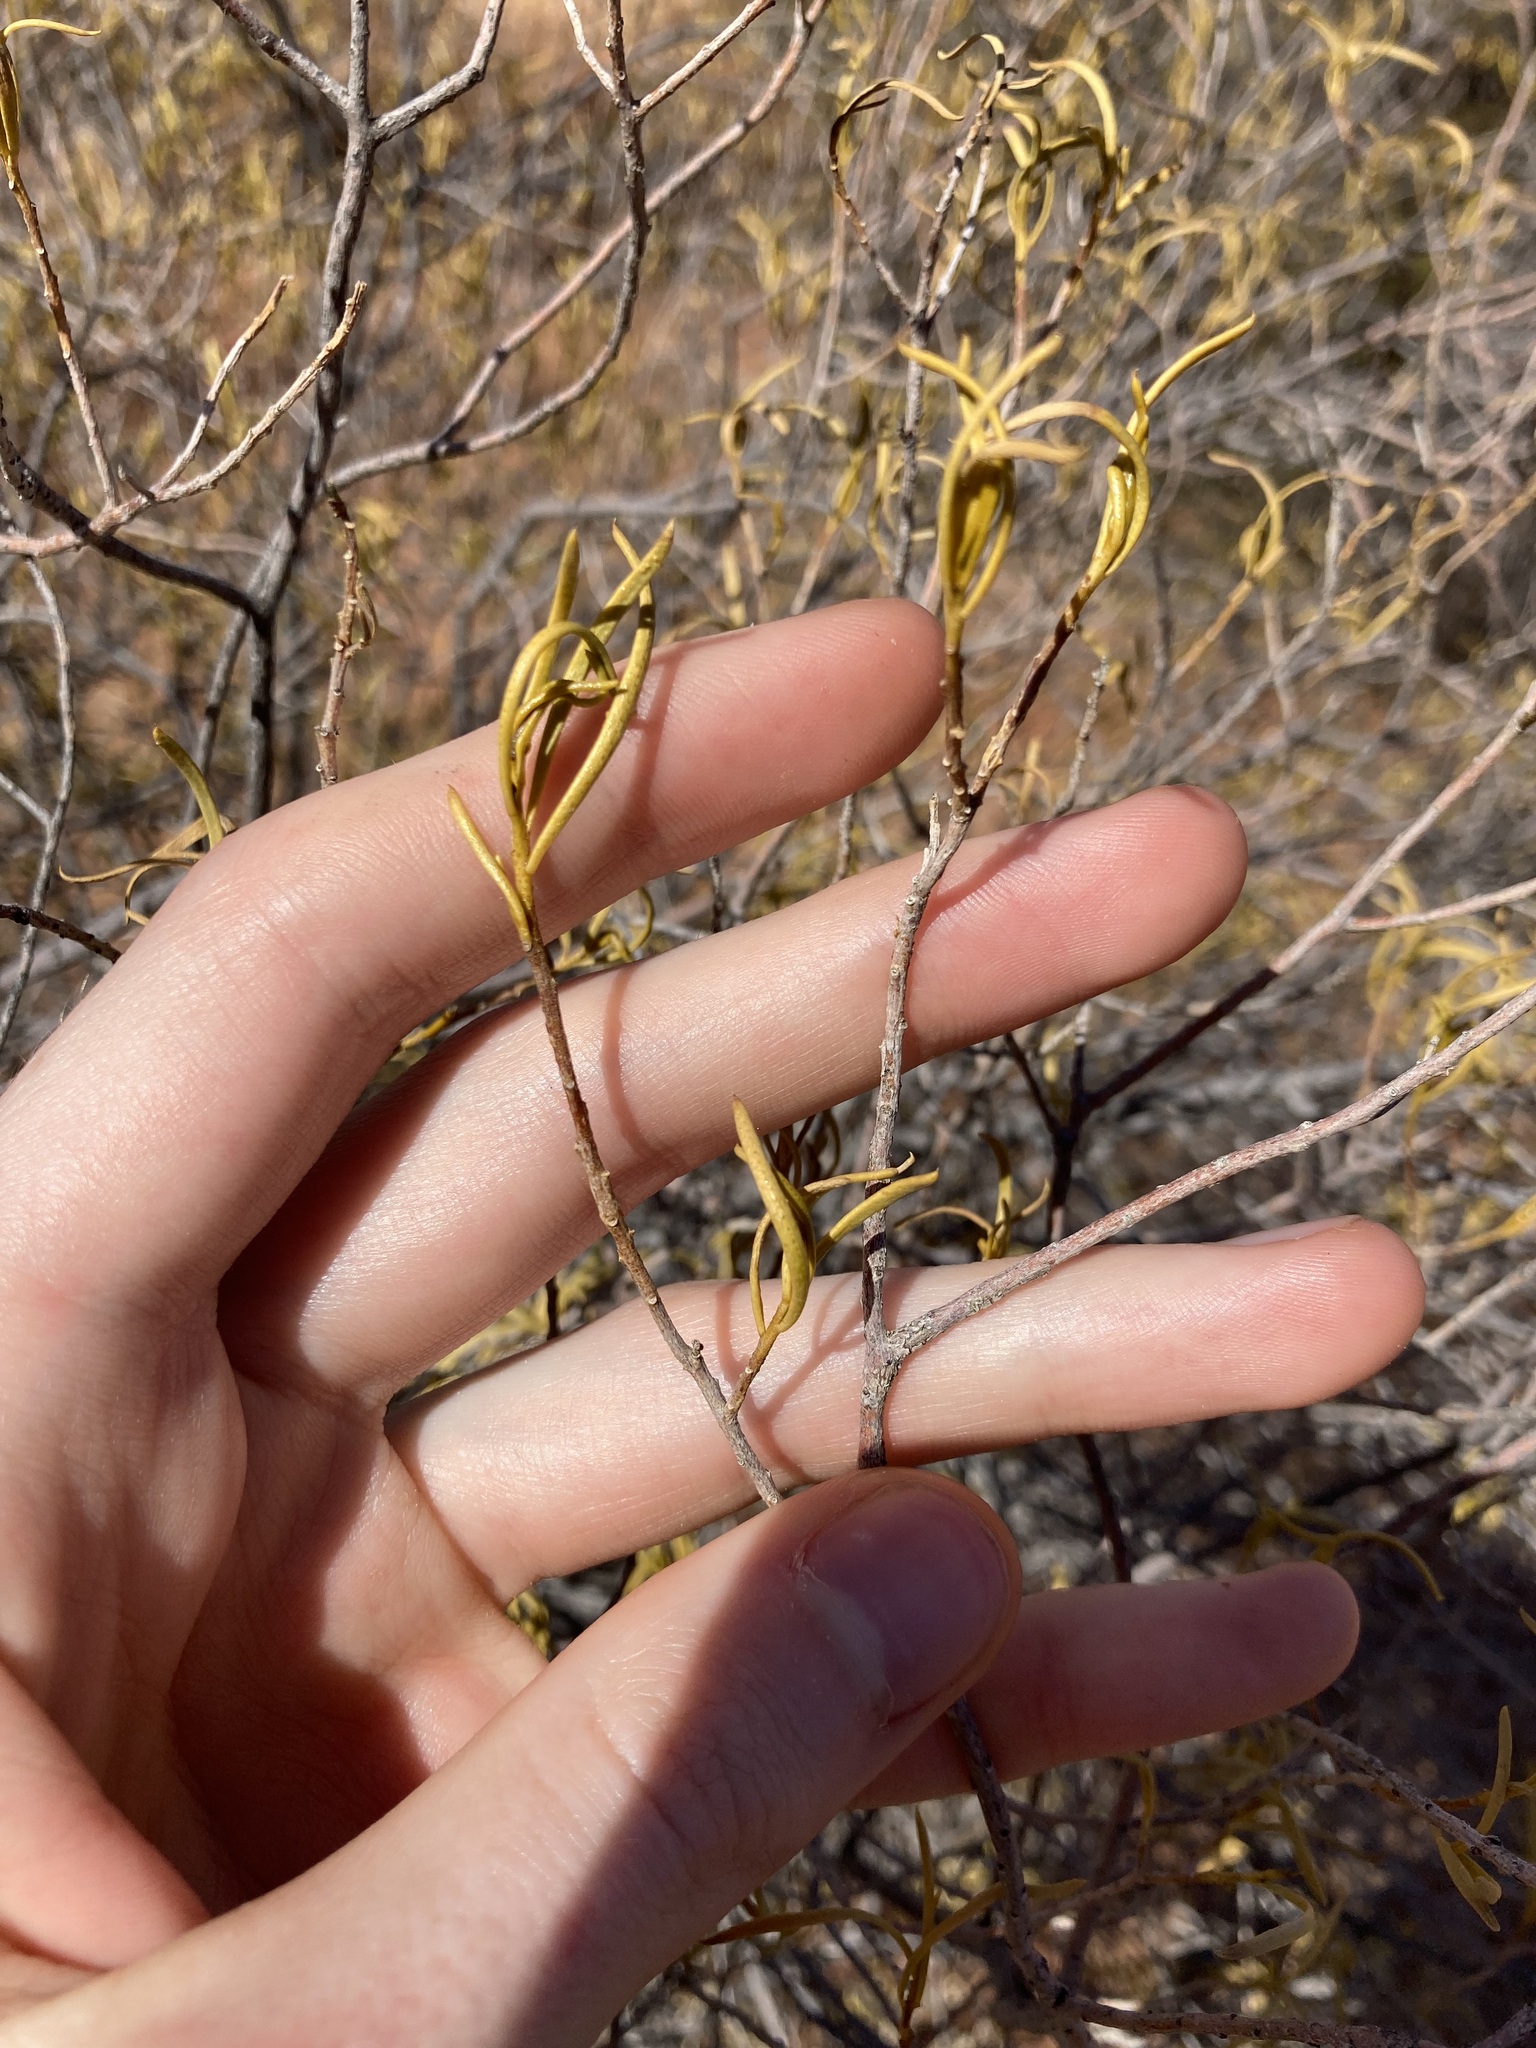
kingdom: Plantae
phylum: Tracheophyta
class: Magnoliopsida
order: Lamiales
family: Scrophulariaceae
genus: Eremophila
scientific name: Eremophila latrobei
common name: Crimson turkeybush
